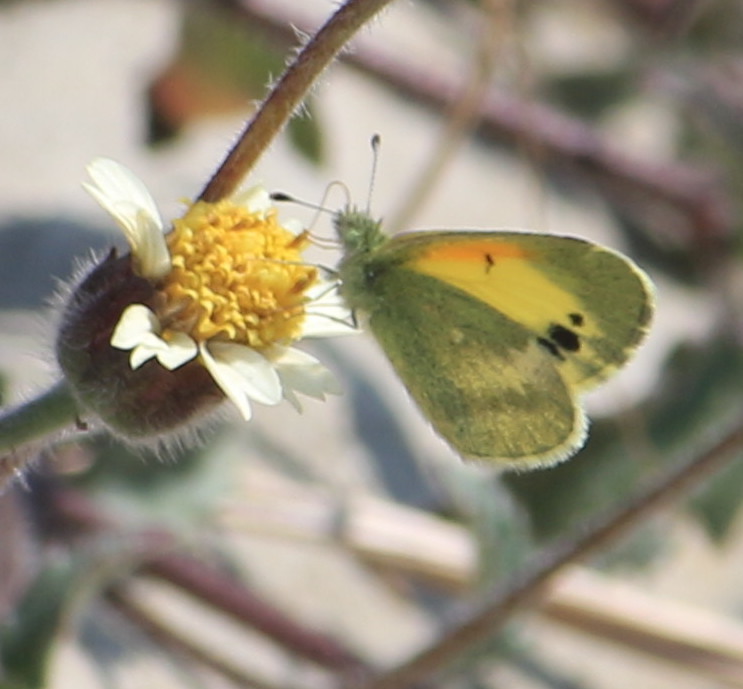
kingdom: Animalia
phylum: Arthropoda
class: Insecta
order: Lepidoptera
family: Pieridae
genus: Nathalis
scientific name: Nathalis iole
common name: Dainty sulphur
